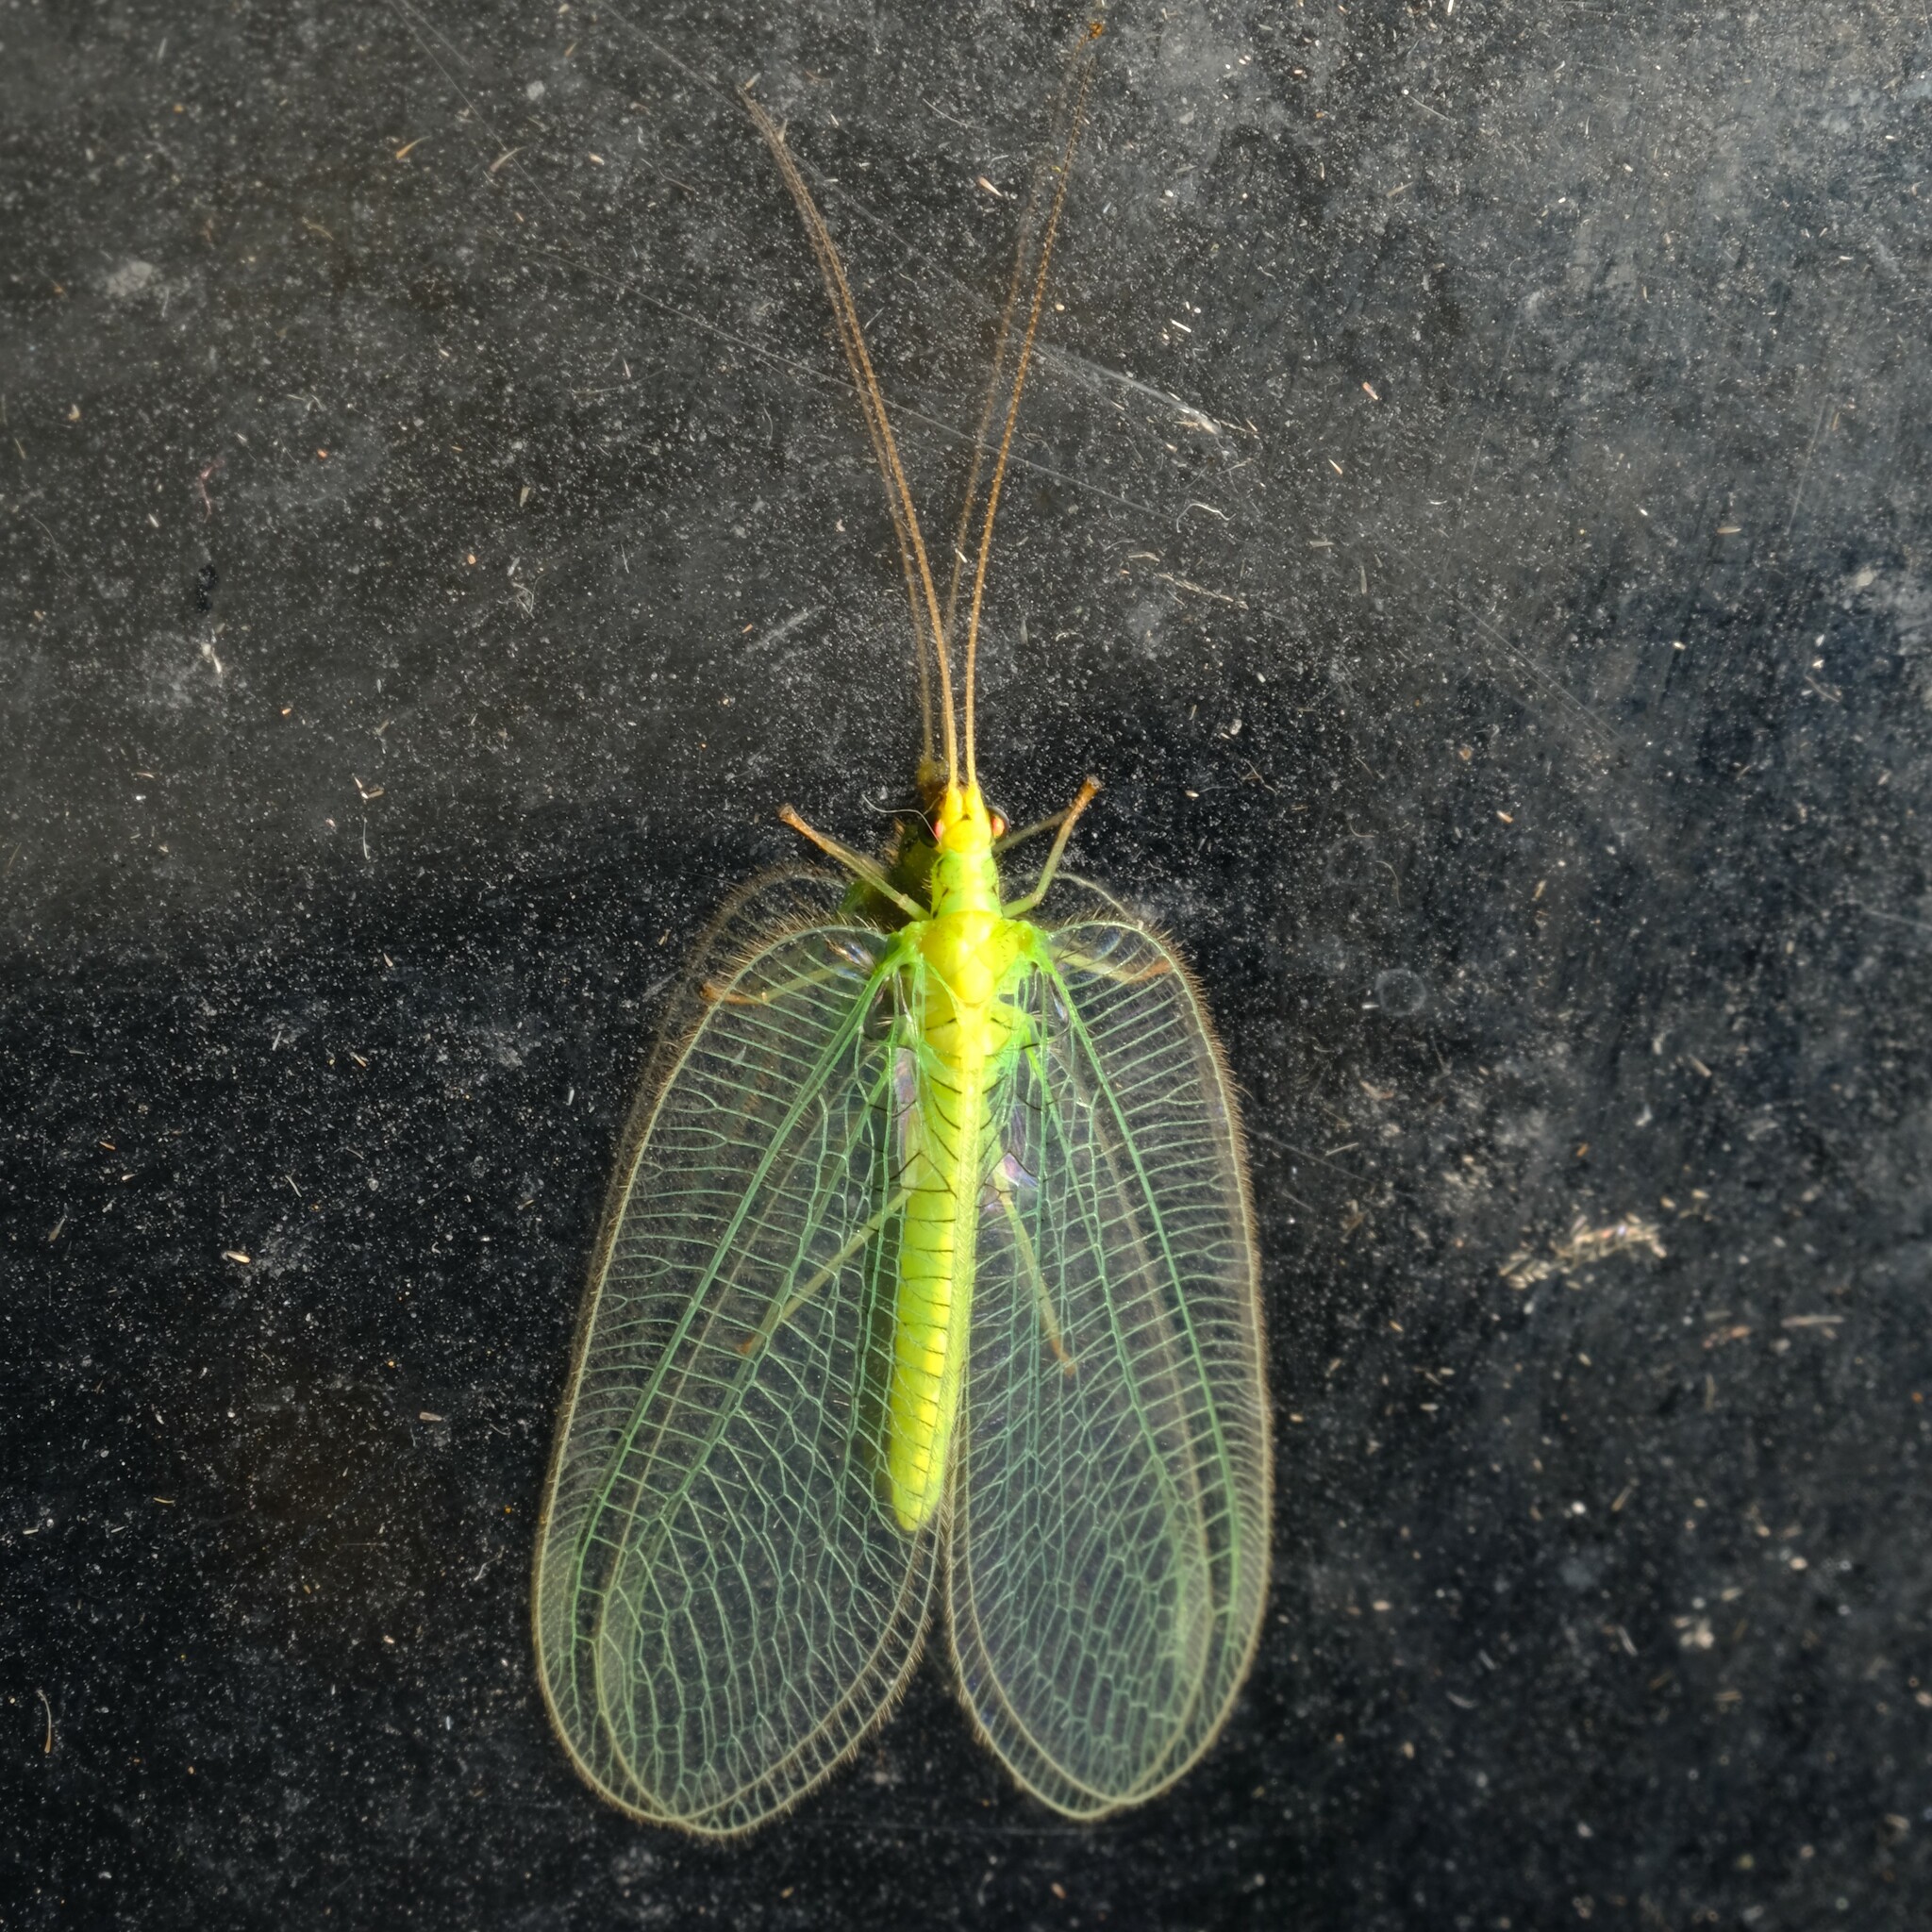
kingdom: Animalia
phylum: Arthropoda
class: Insecta
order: Neuroptera
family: Chrysopidae
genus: Nothancyla
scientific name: Nothancyla verreauxi
